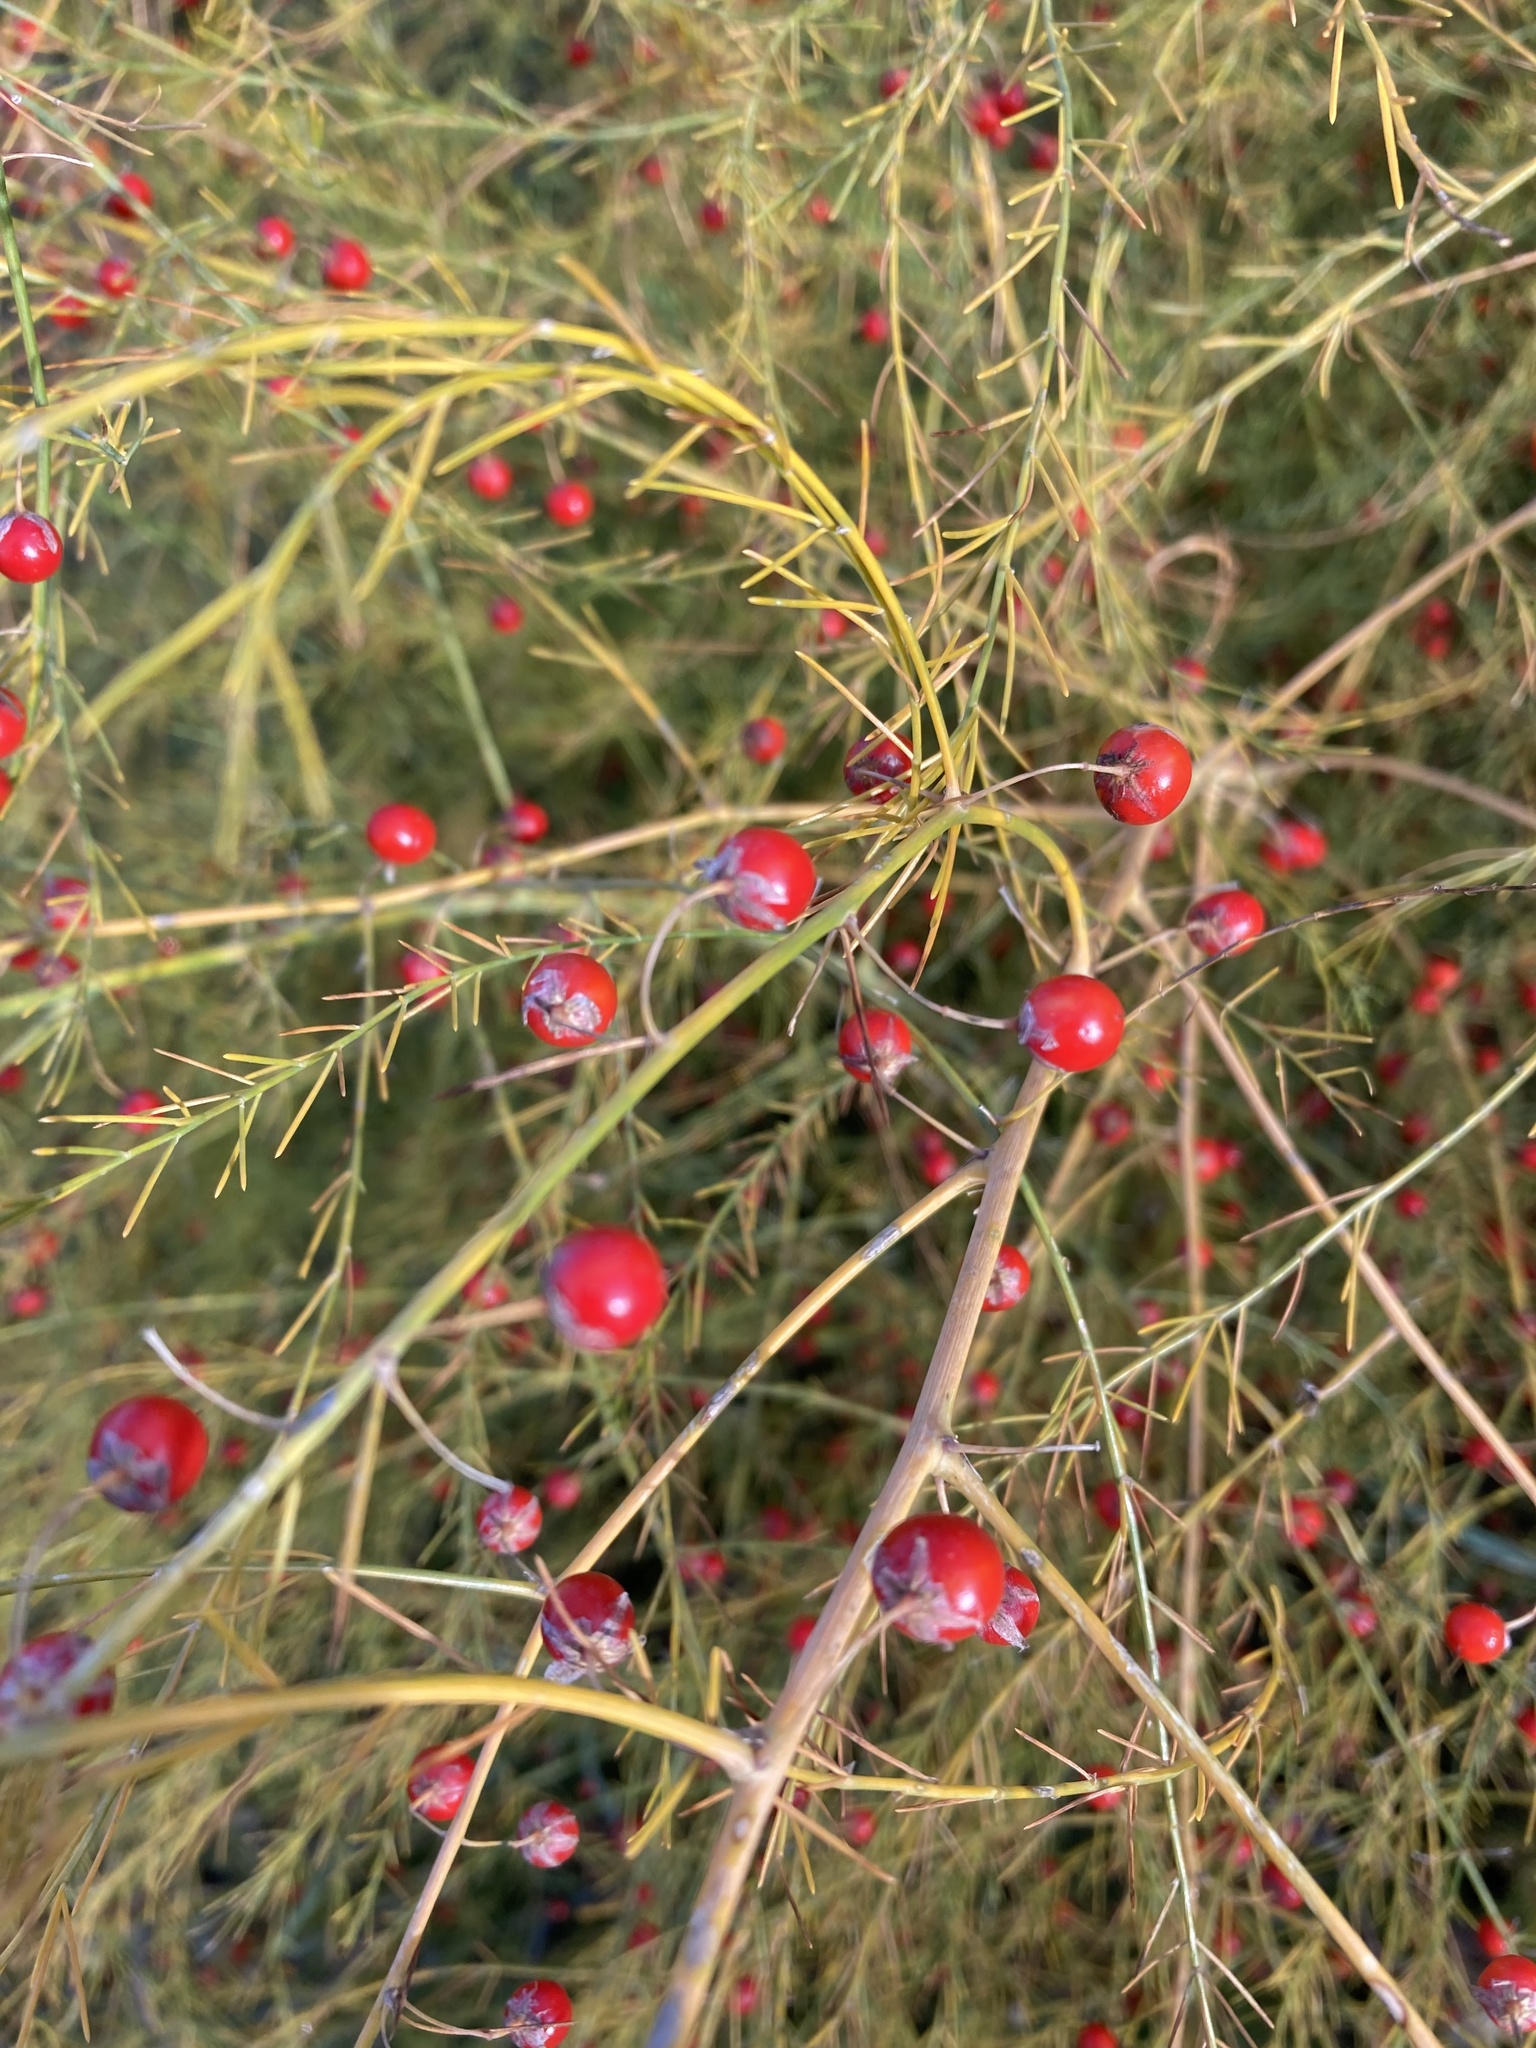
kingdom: Plantae
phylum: Tracheophyta
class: Liliopsida
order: Asparagales
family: Asparagaceae
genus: Asparagus
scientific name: Asparagus officinalis
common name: Garden asparagus
